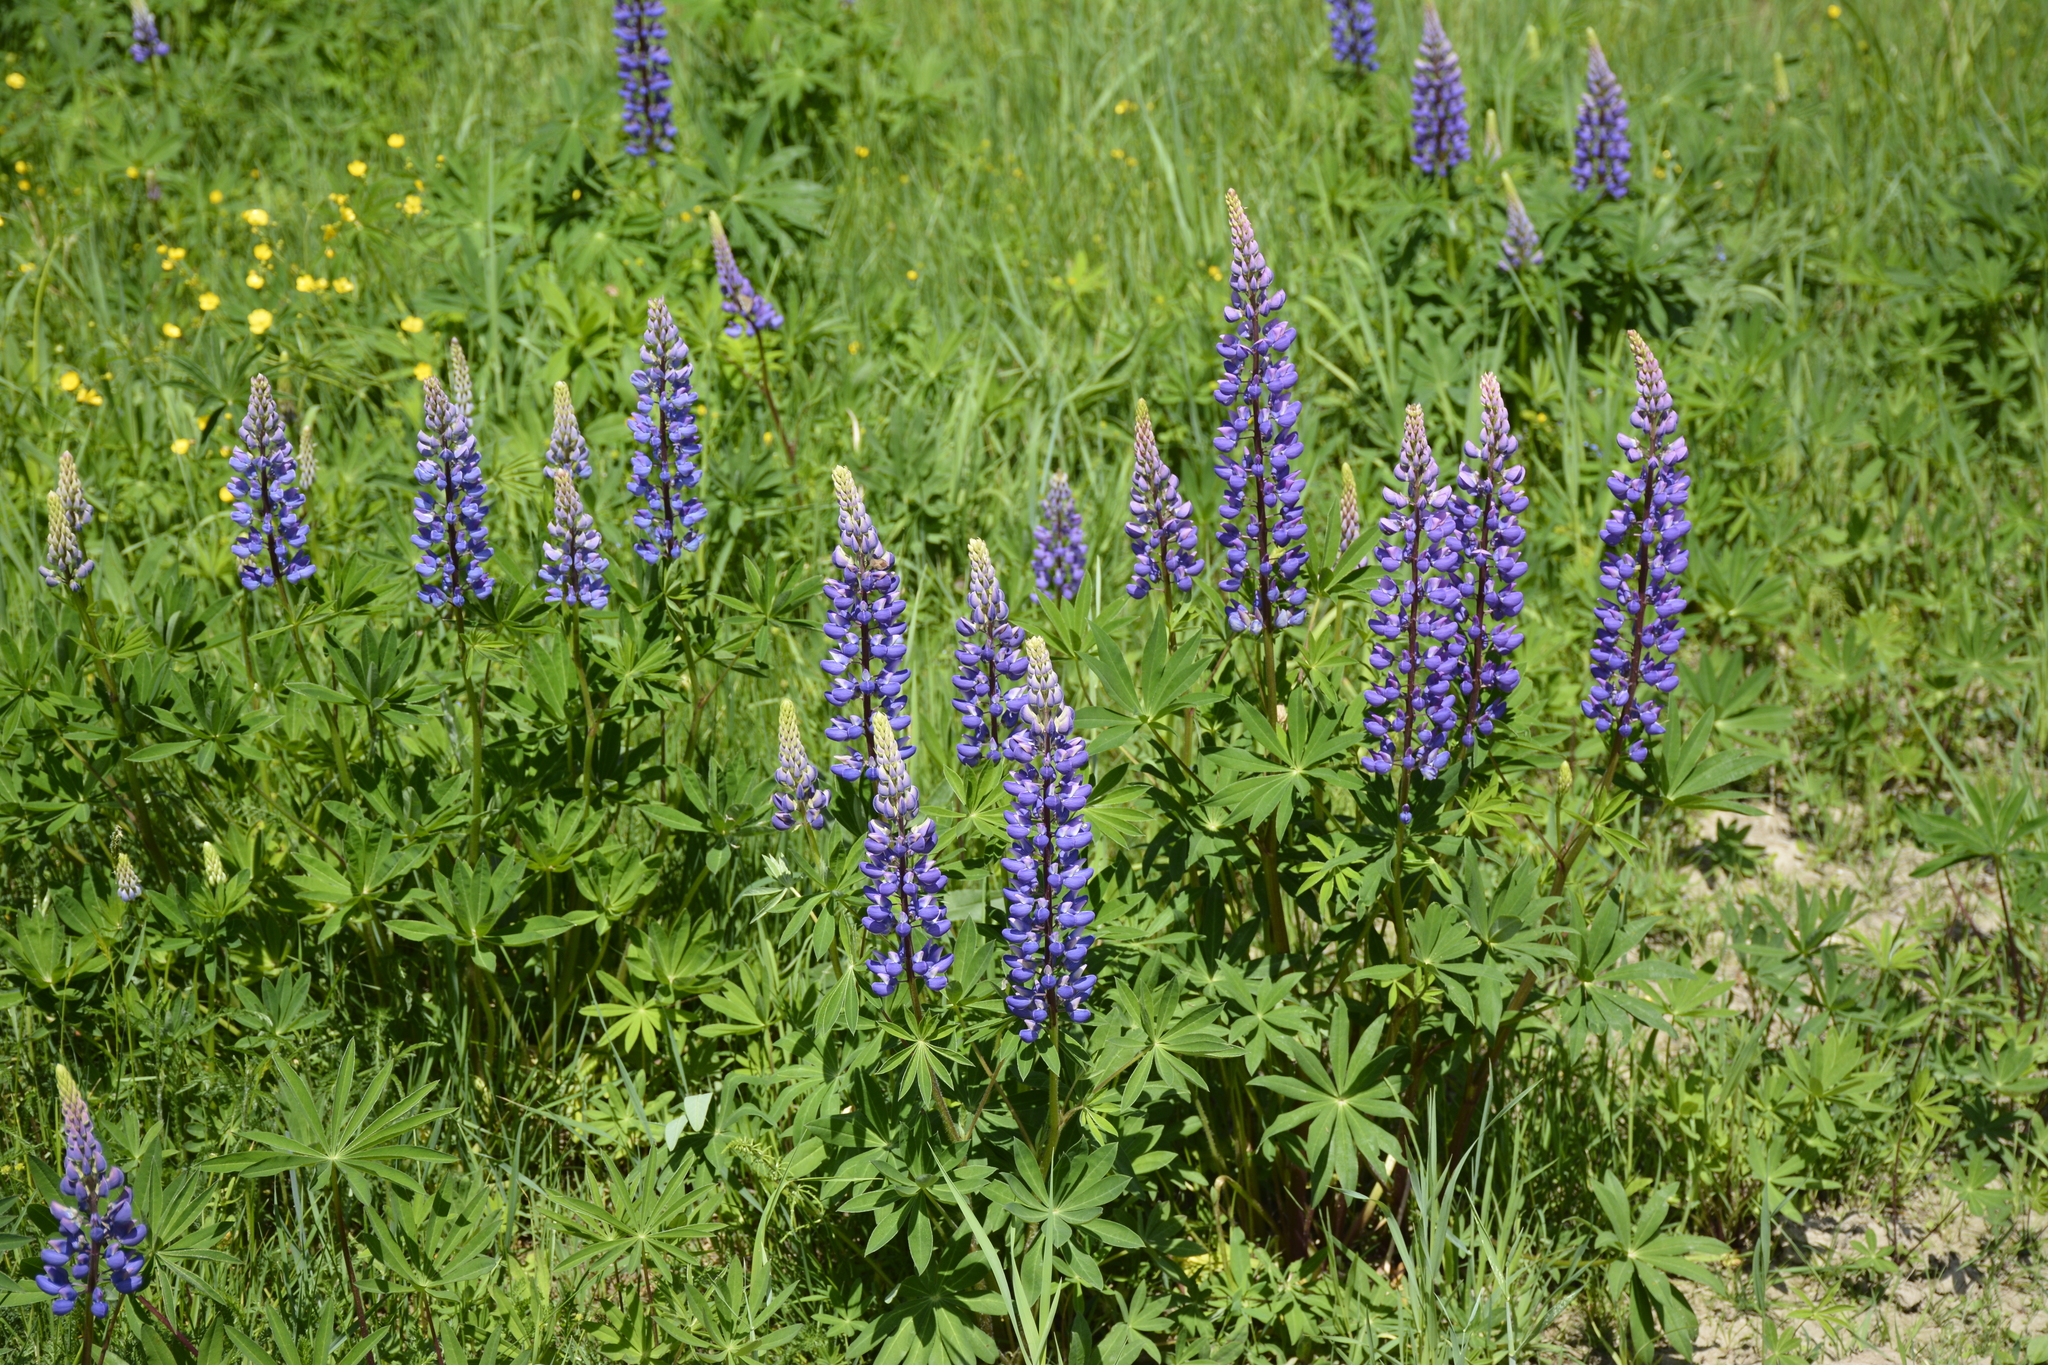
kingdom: Plantae
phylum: Tracheophyta
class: Magnoliopsida
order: Fabales
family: Fabaceae
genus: Lupinus
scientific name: Lupinus polyphyllus
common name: Garden lupin
